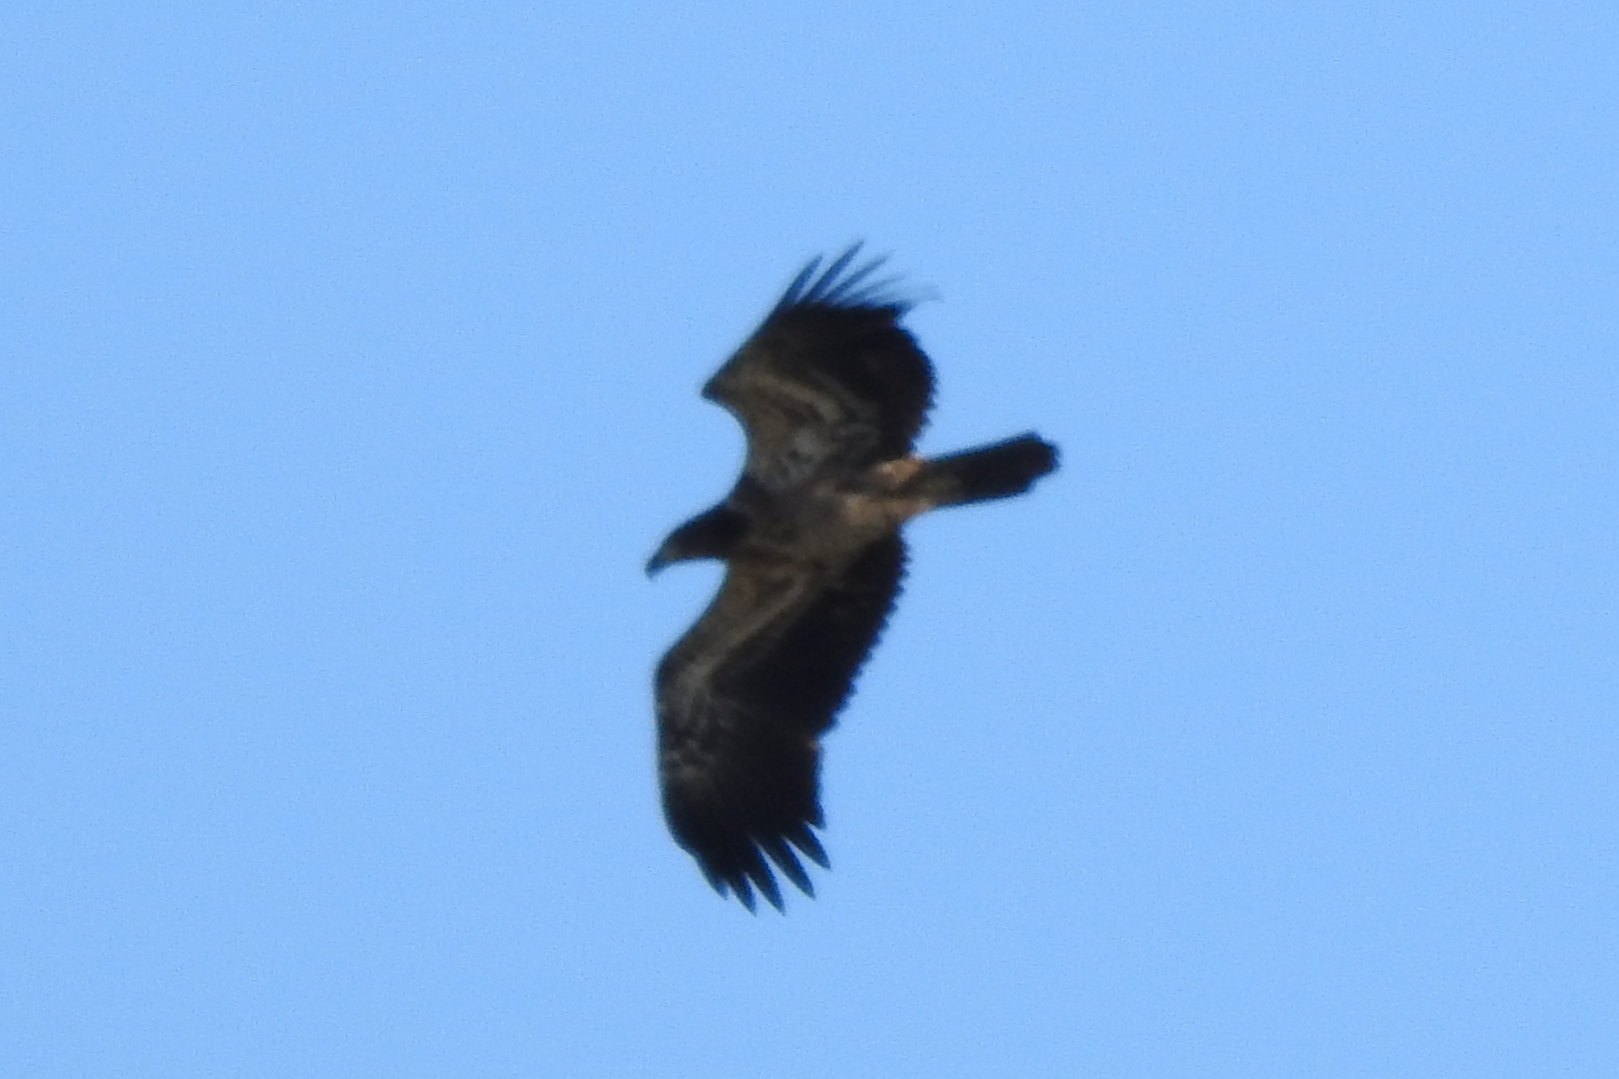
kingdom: Animalia
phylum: Chordata
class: Aves
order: Accipitriformes
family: Accipitridae
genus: Haliaeetus
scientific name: Haliaeetus leucocephalus
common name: Bald eagle
